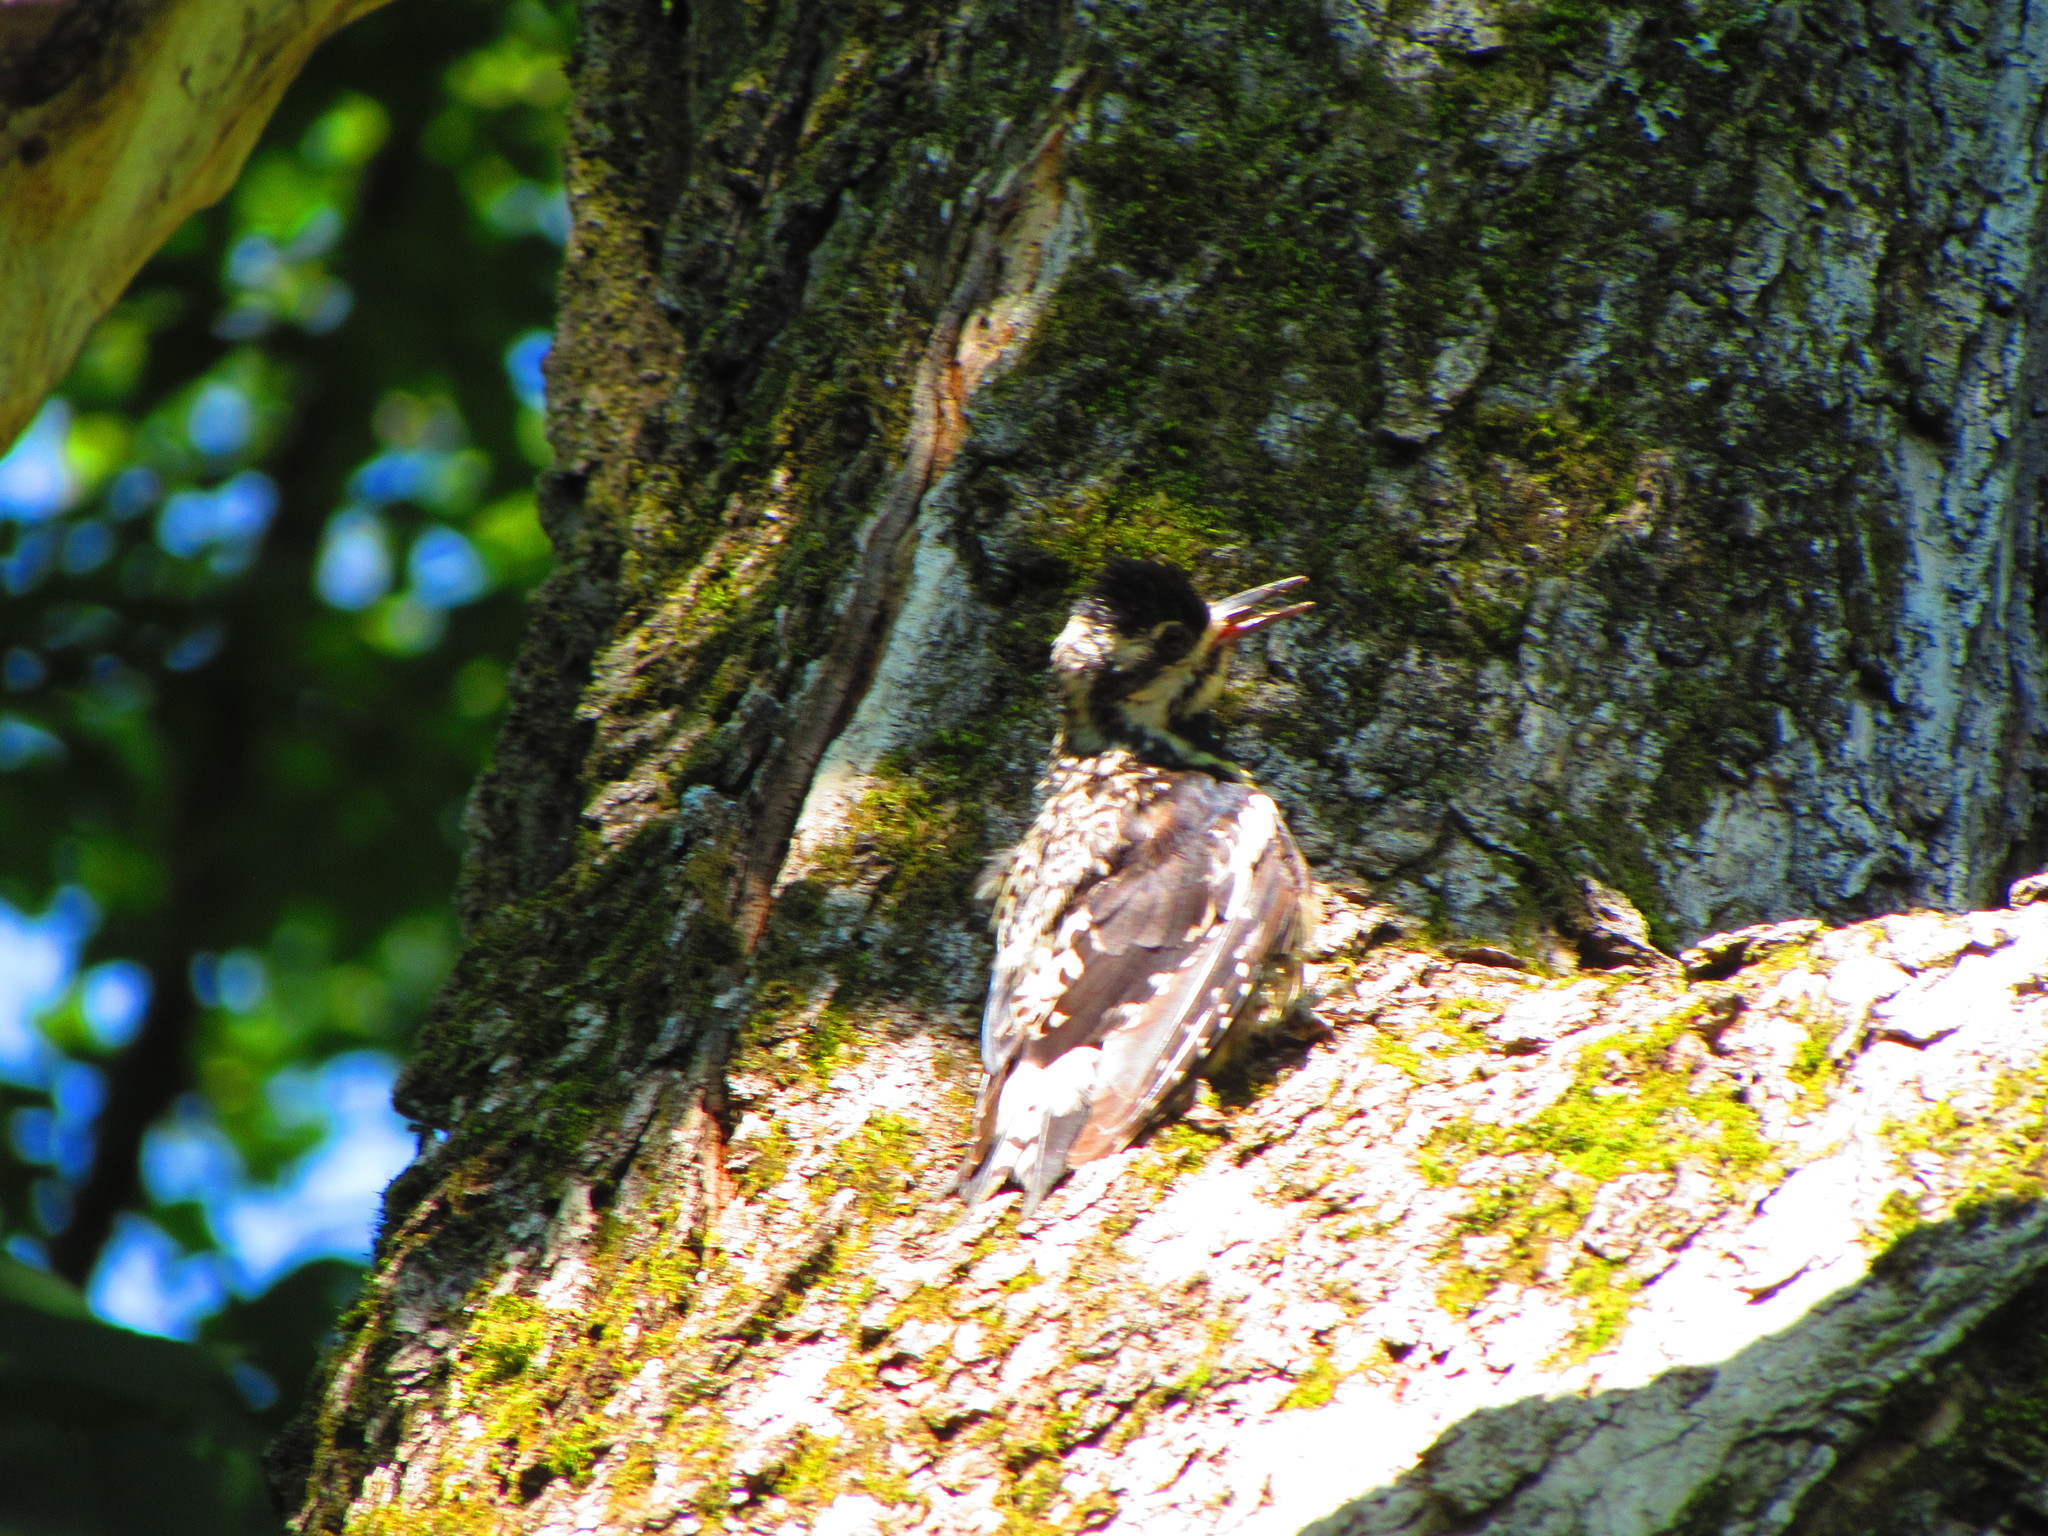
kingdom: Animalia
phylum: Chordata
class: Aves
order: Piciformes
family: Picidae
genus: Sphyrapicus
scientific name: Sphyrapicus varius
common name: Yellow-bellied sapsucker
